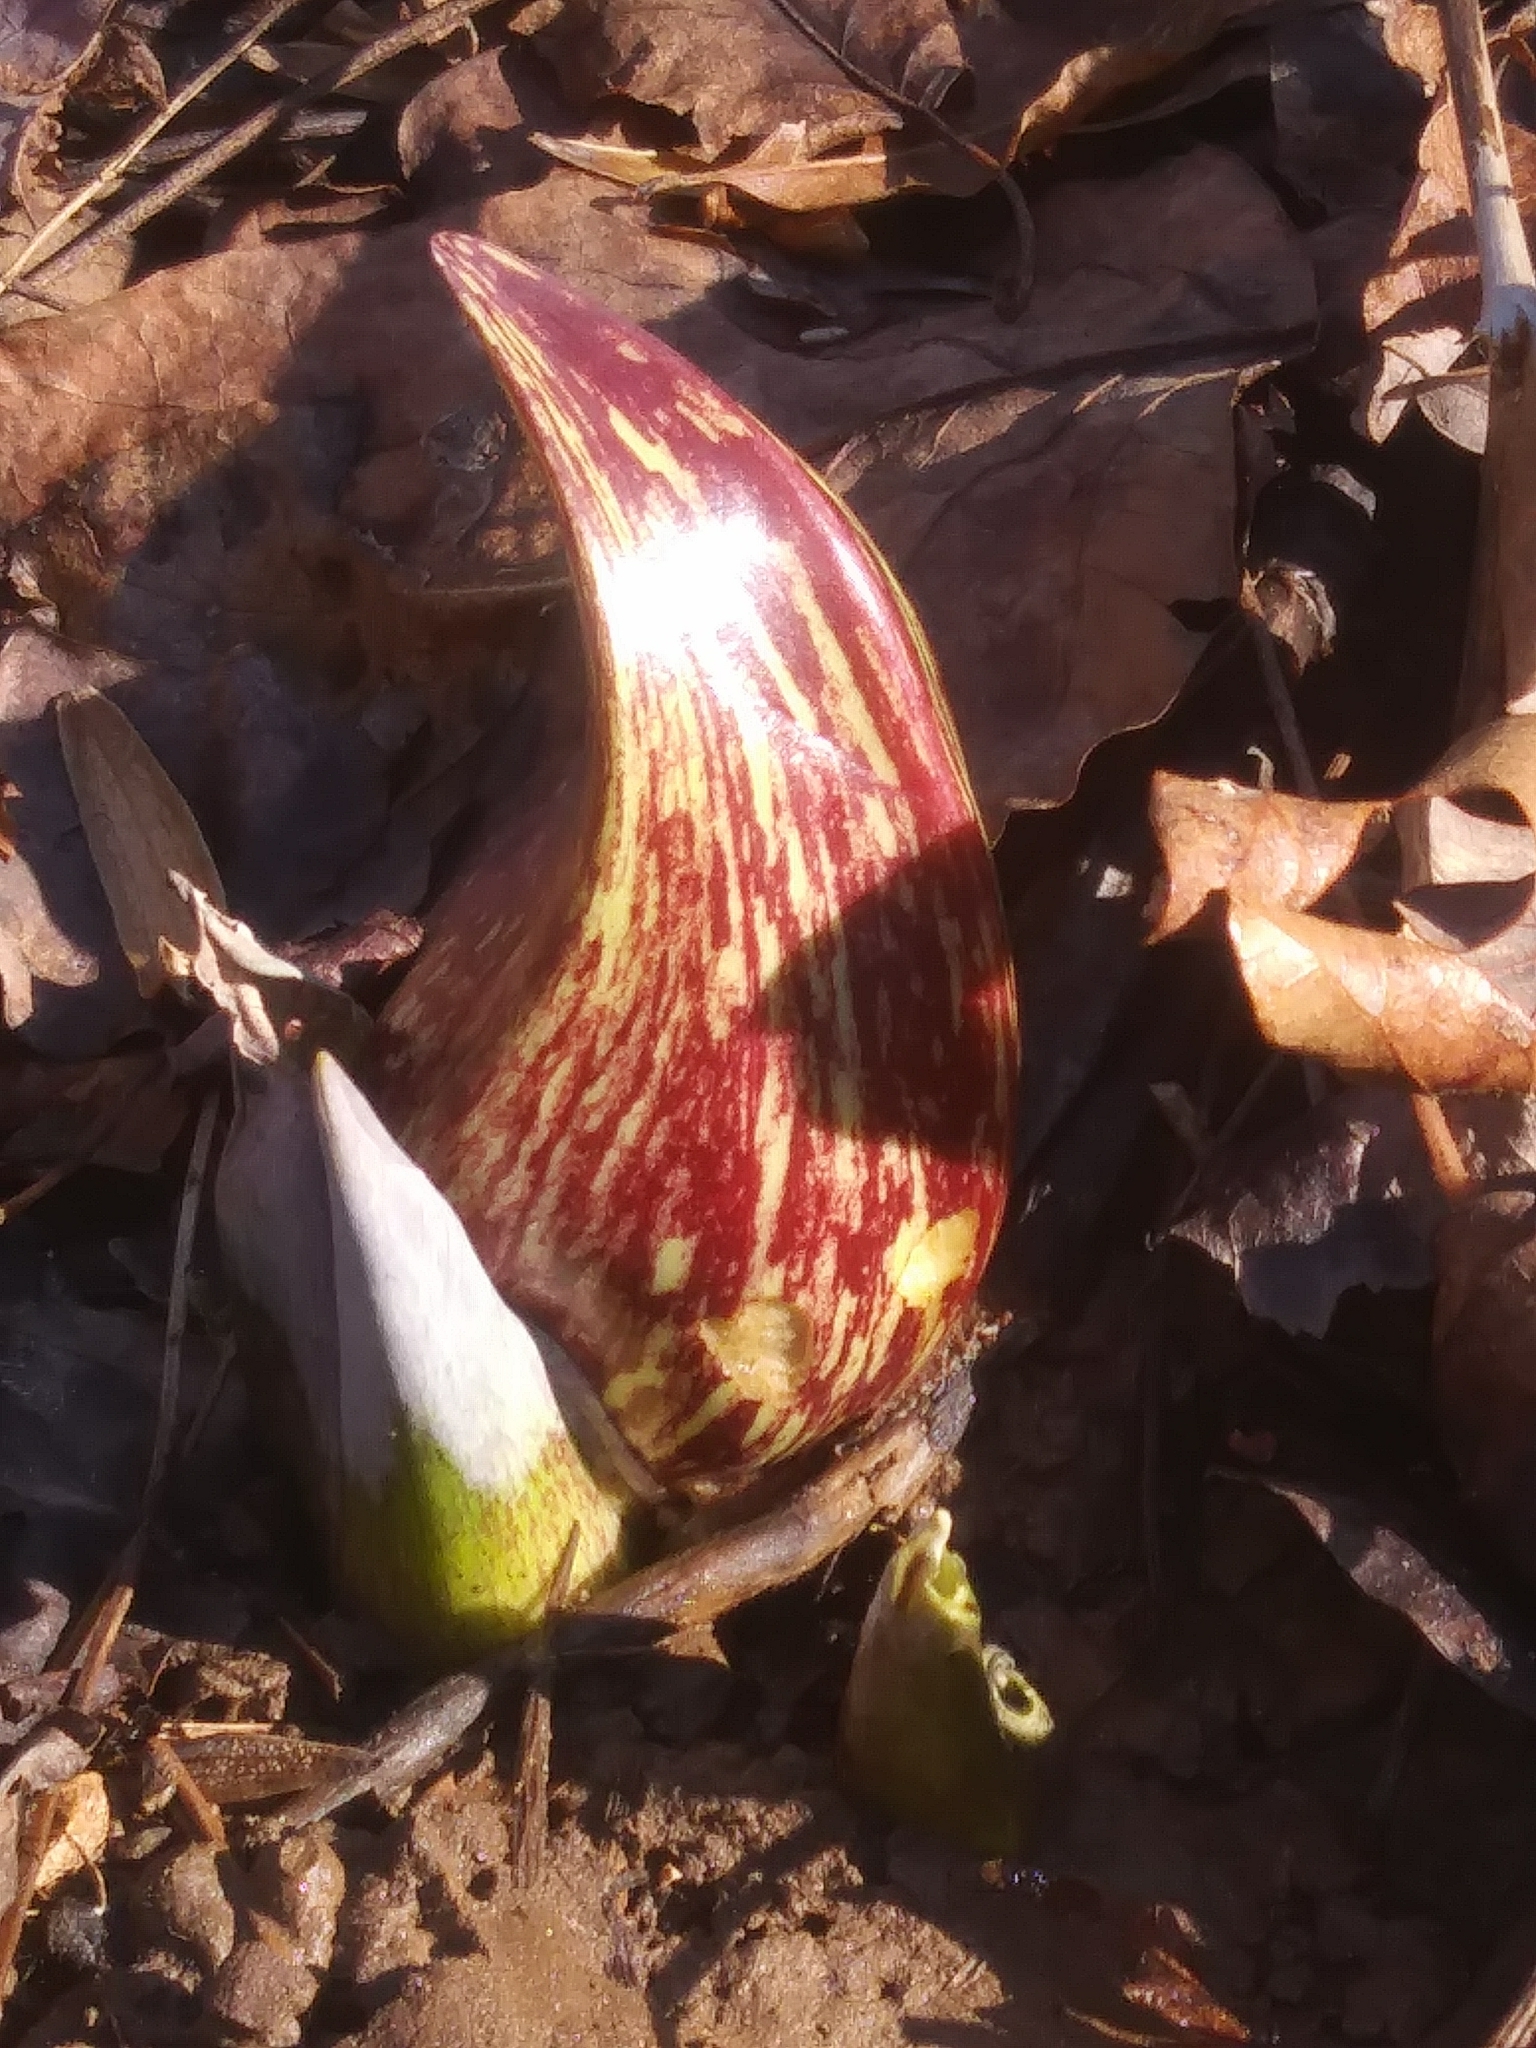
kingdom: Plantae
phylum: Tracheophyta
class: Liliopsida
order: Alismatales
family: Araceae
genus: Symplocarpus
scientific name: Symplocarpus foetidus
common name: Eastern skunk cabbage
